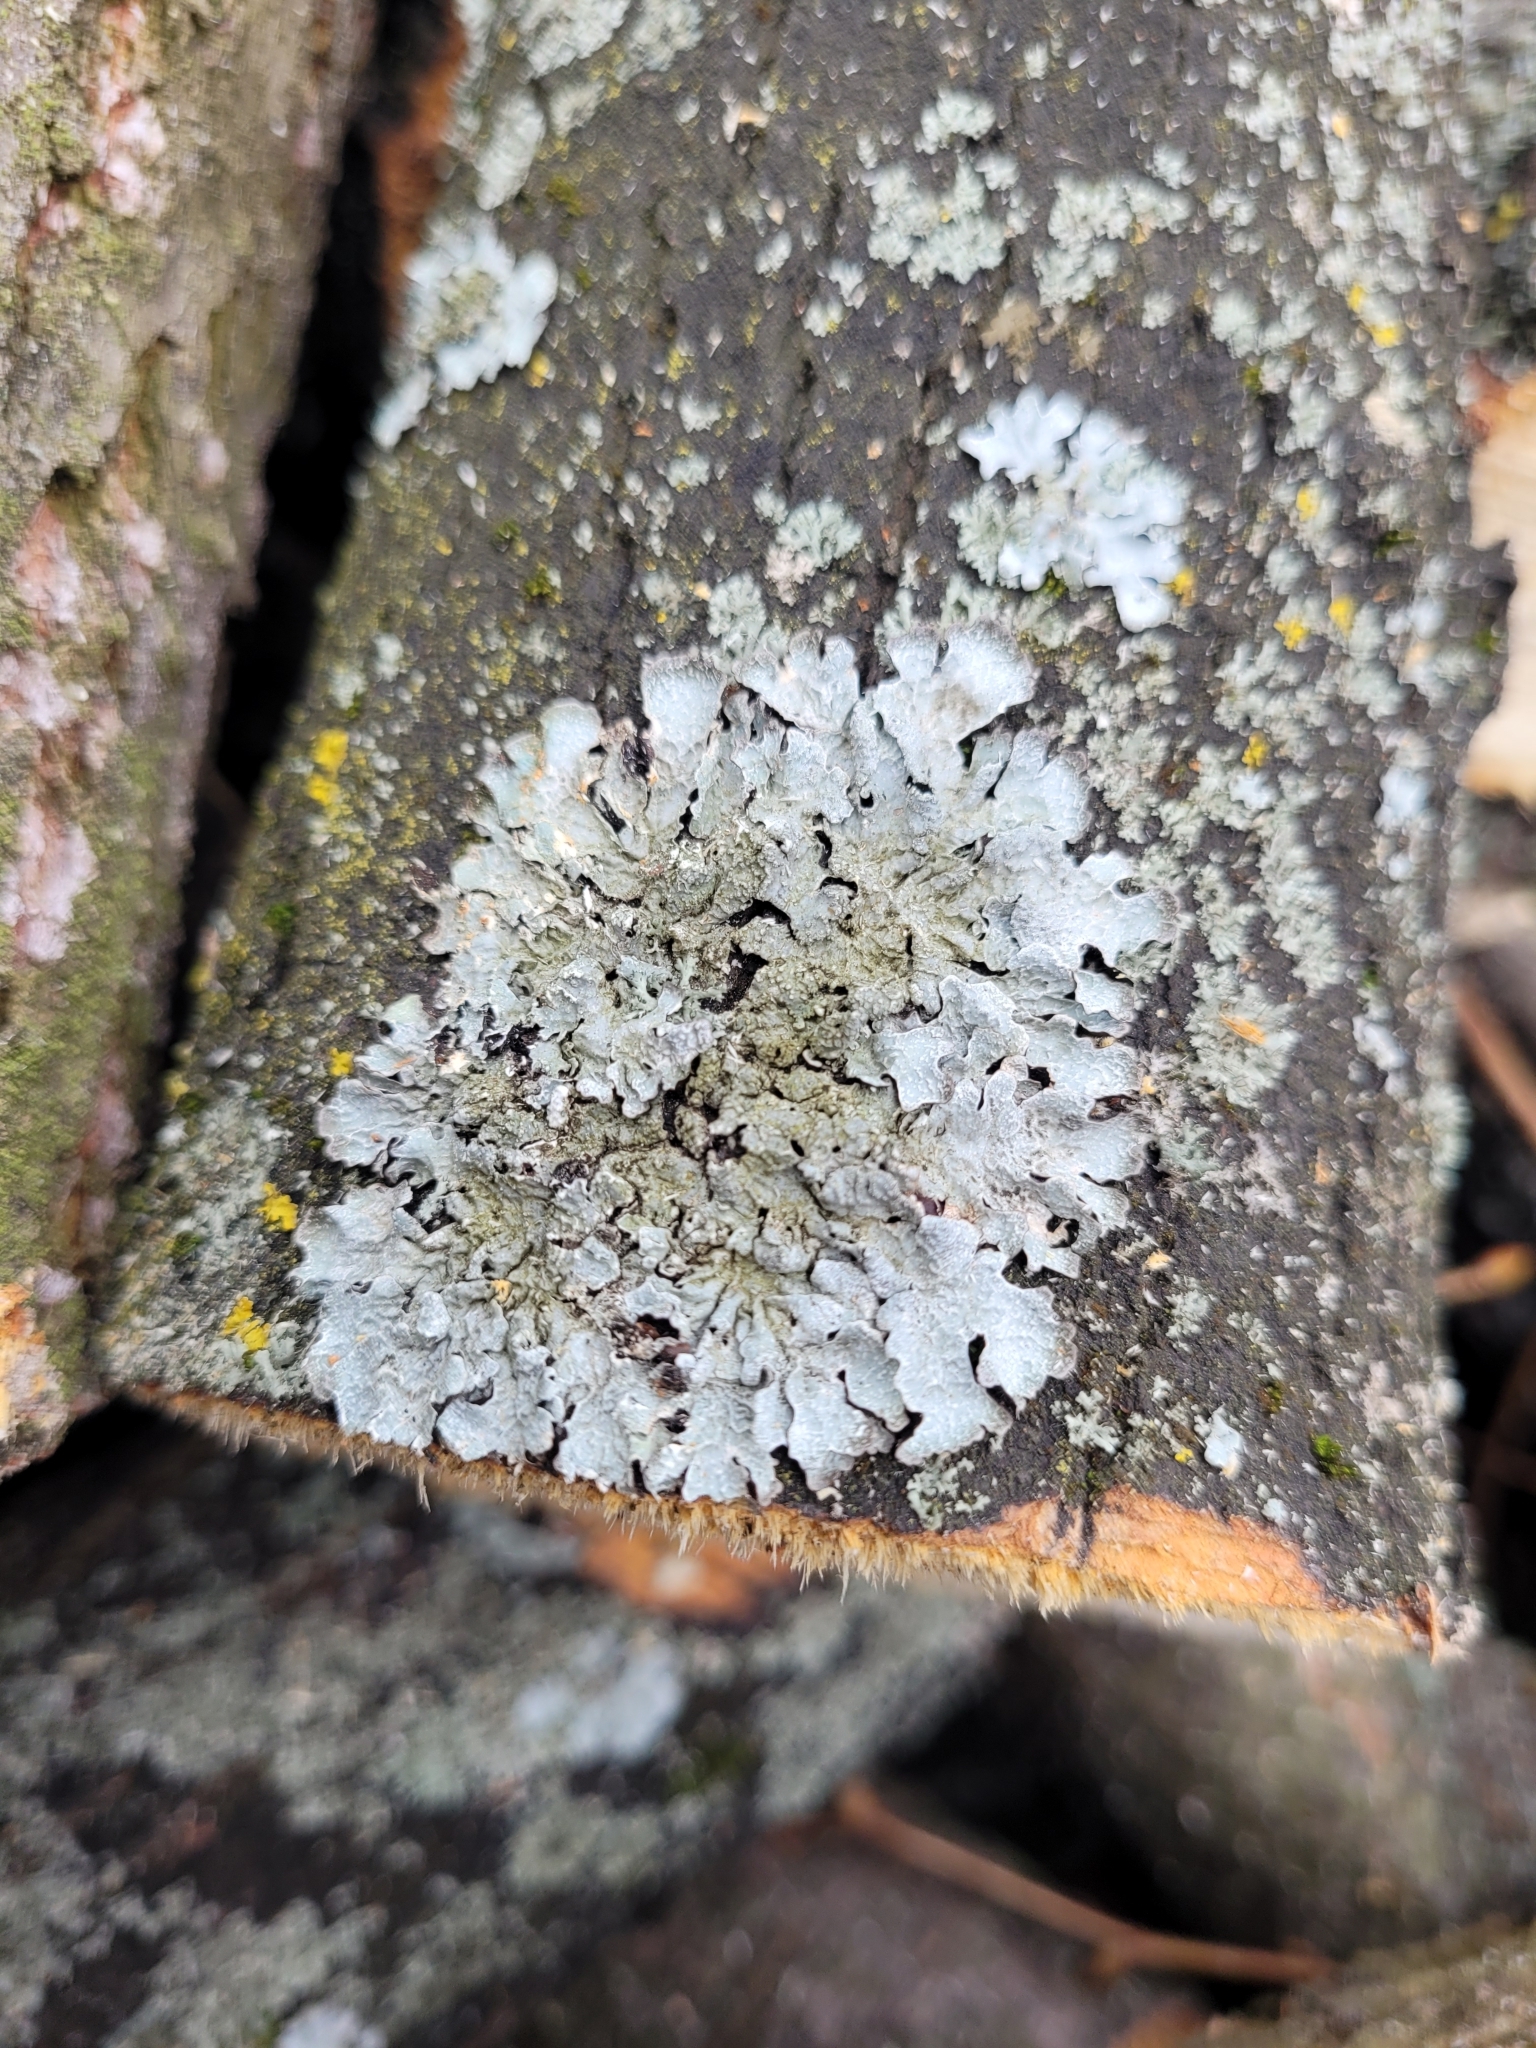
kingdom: Fungi
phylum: Ascomycota
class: Lecanoromycetes
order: Lecanorales
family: Parmeliaceae
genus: Parmelia
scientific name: Parmelia sulcata
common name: Netted shield lichen
